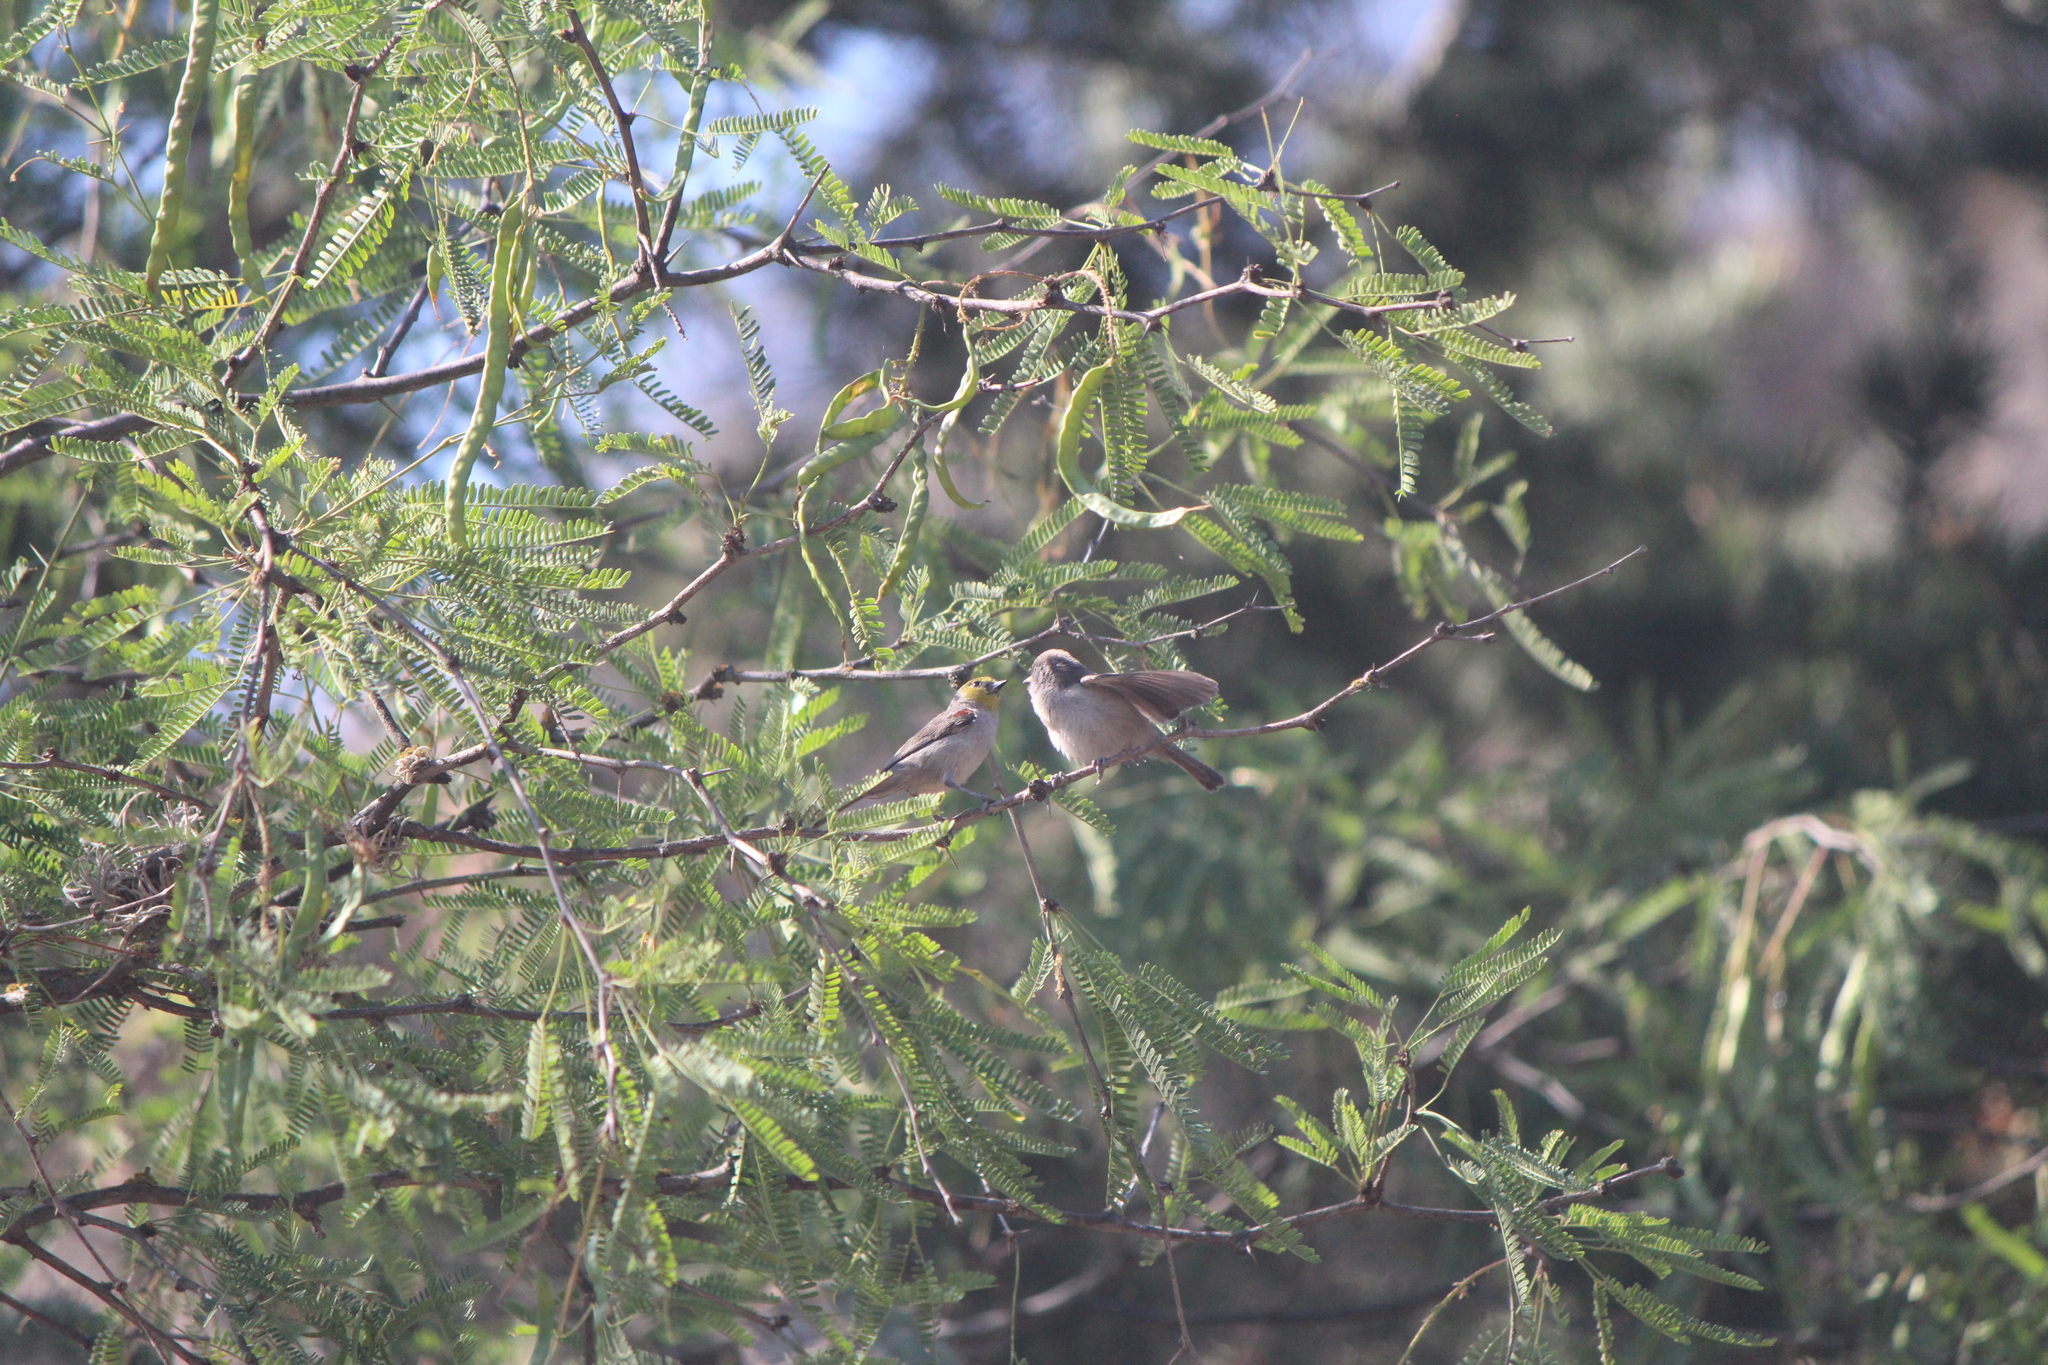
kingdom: Animalia
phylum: Chordata
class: Aves
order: Passeriformes
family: Remizidae
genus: Auriparus
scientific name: Auriparus flaviceps
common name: Verdin
